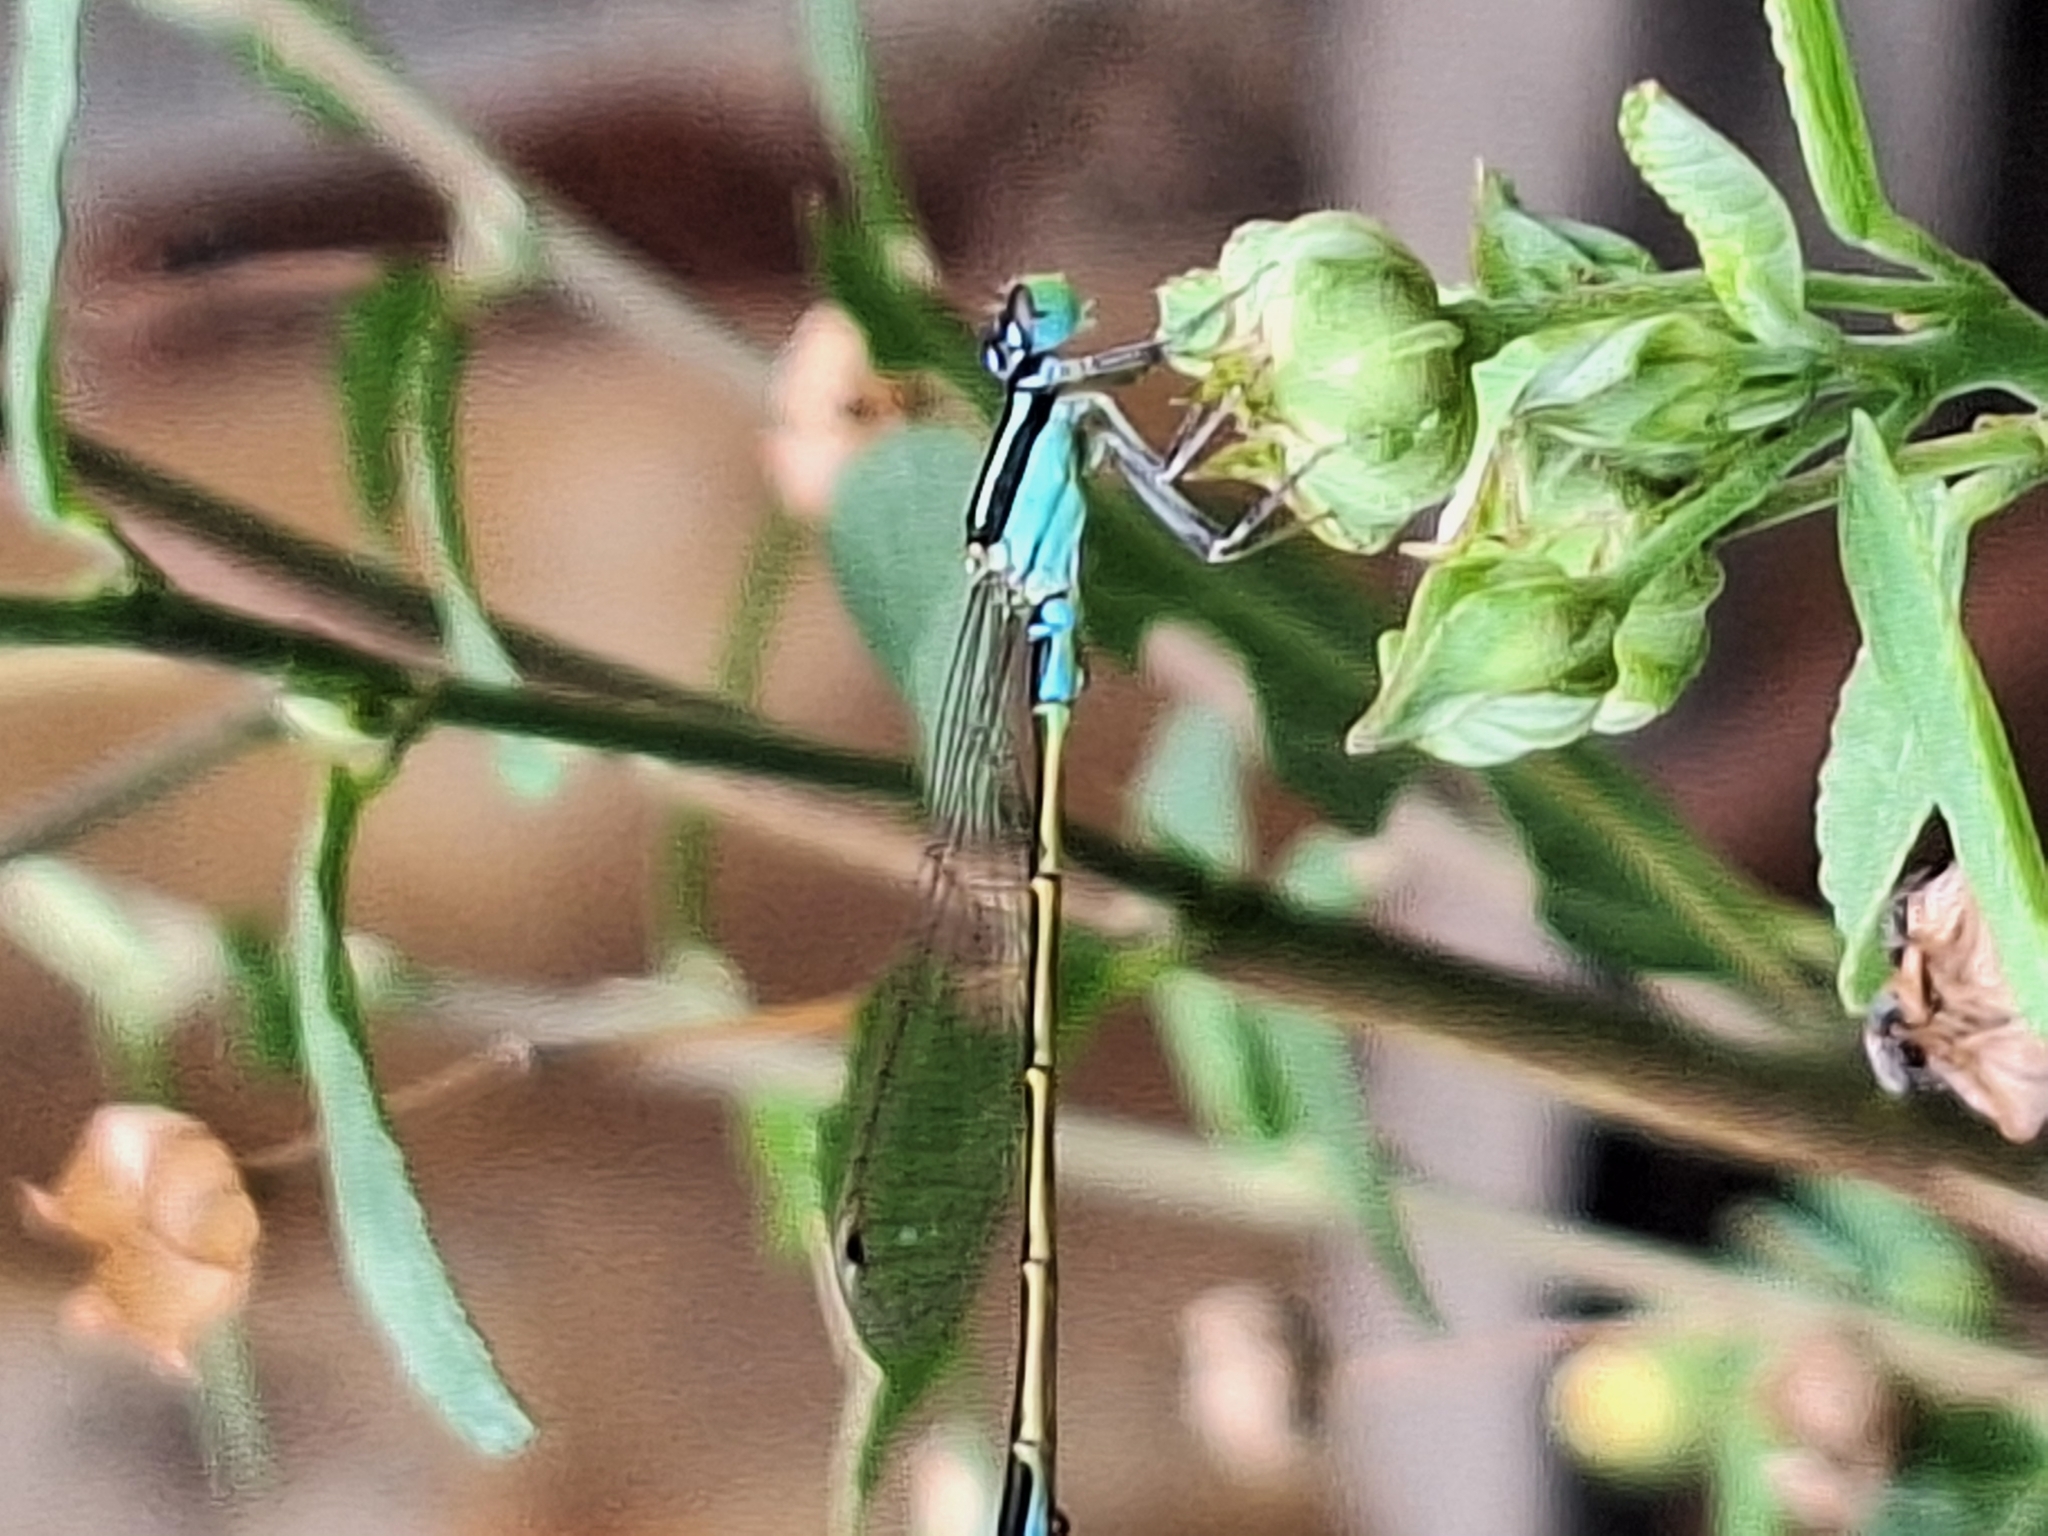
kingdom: Animalia
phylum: Arthropoda
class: Insecta
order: Odonata
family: Coenagrionidae
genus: Ischnura
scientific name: Ischnura fluviatilis
